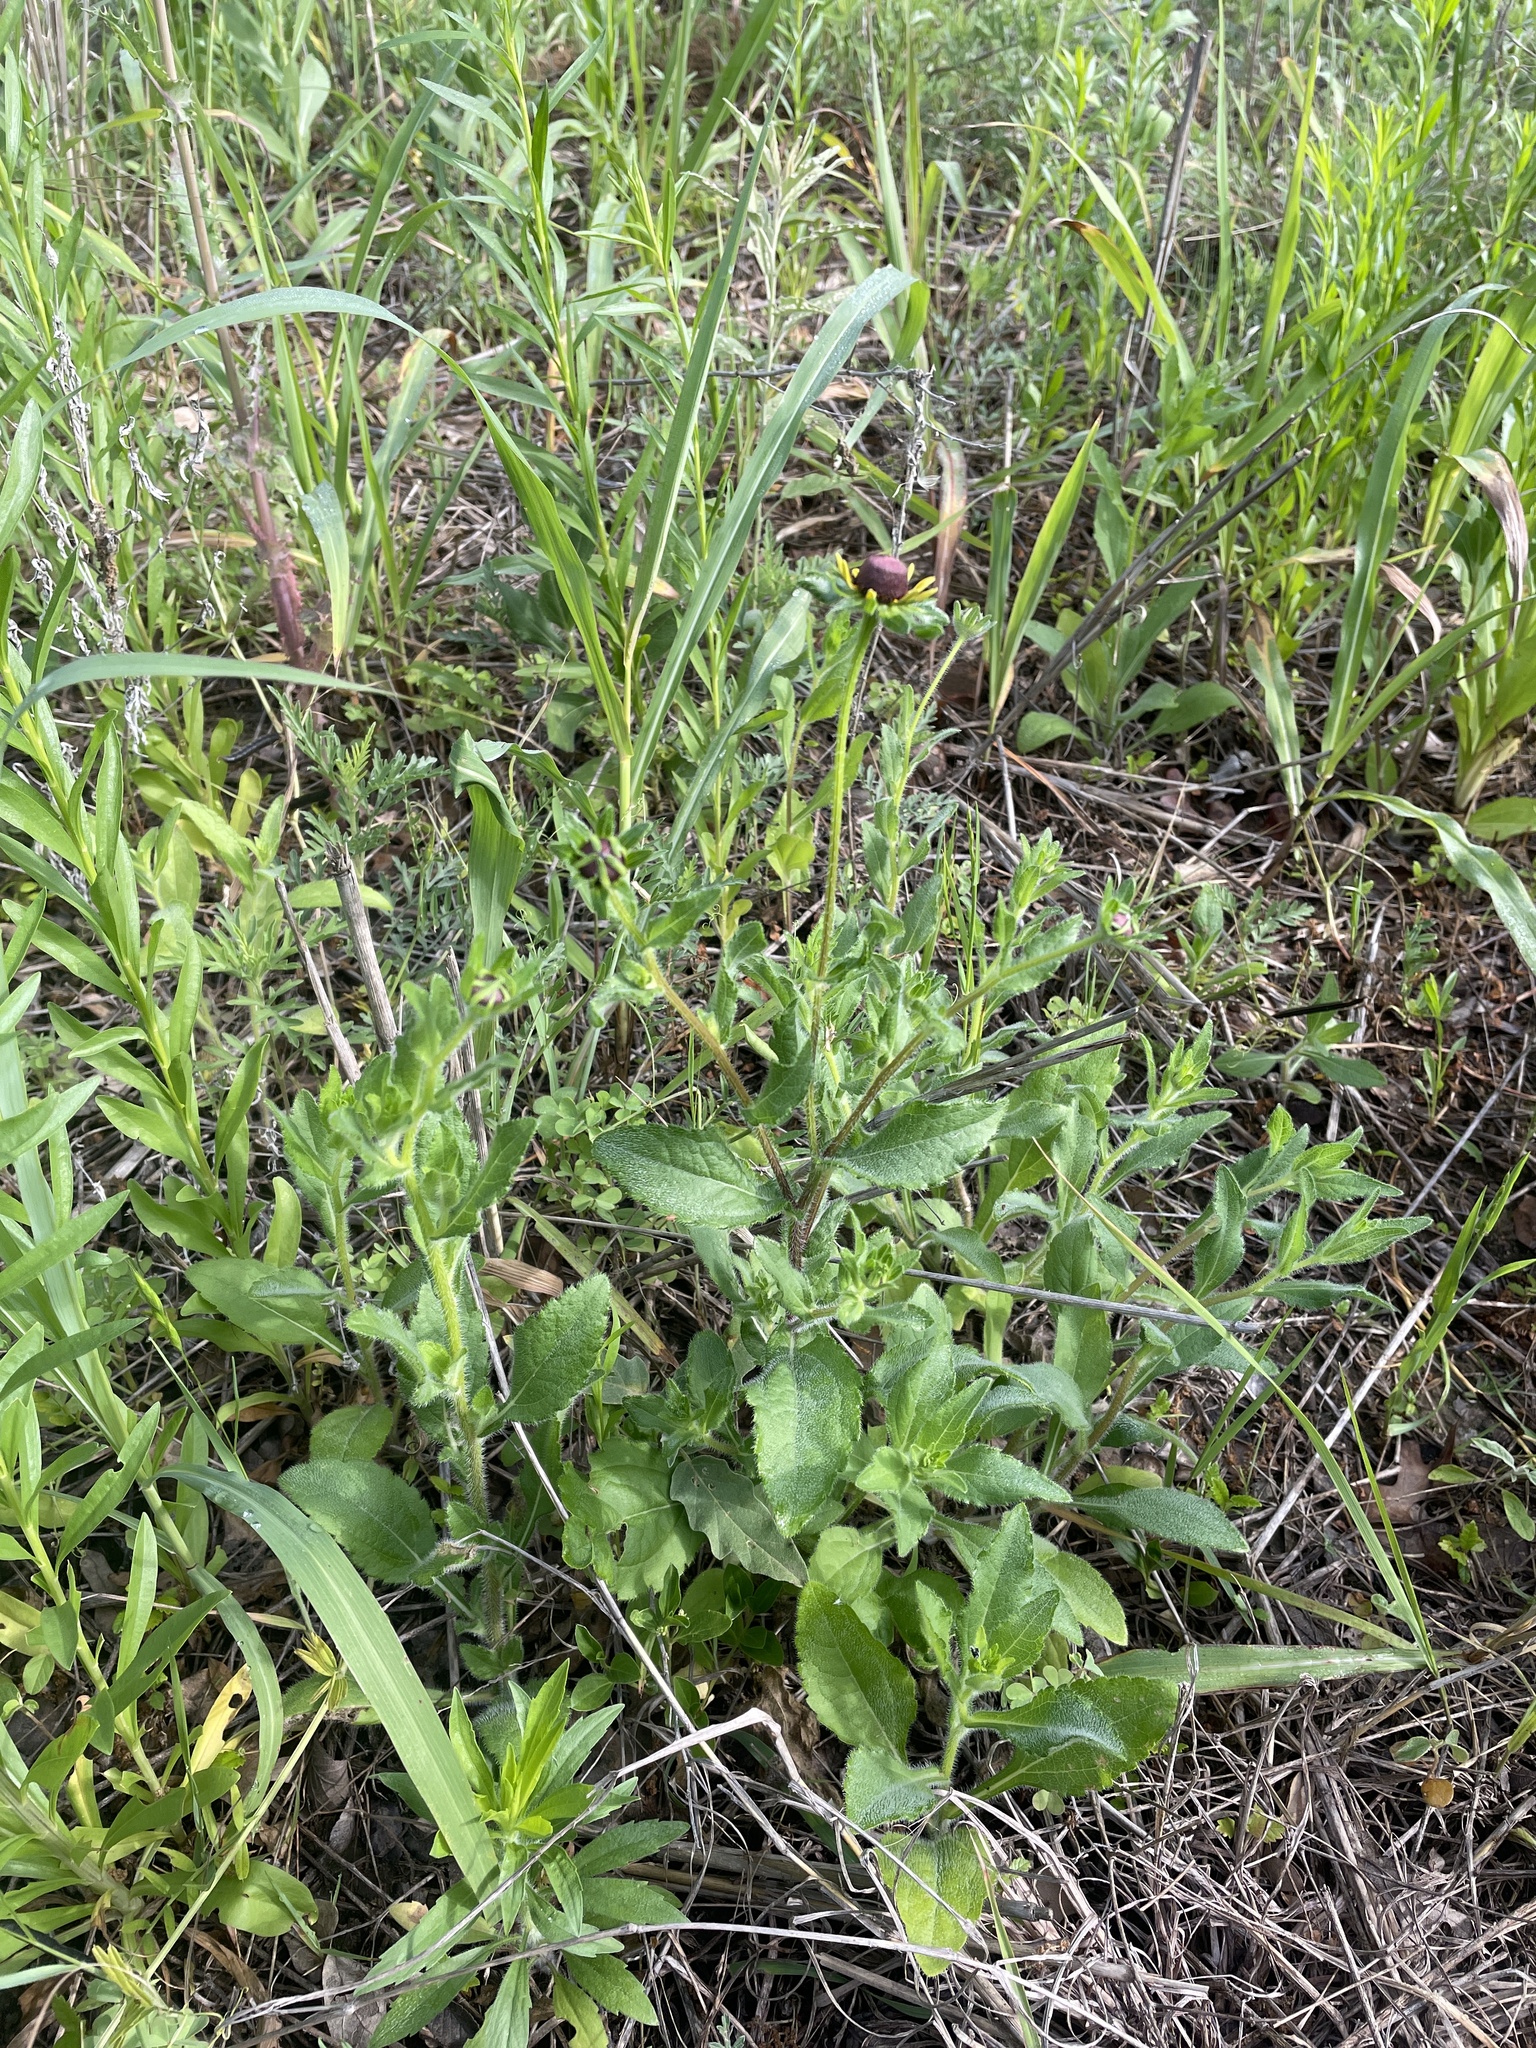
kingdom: Plantae
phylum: Tracheophyta
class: Magnoliopsida
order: Asterales
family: Asteraceae
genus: Rudbeckia
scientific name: Rudbeckia hirta
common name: Black-eyed-susan
